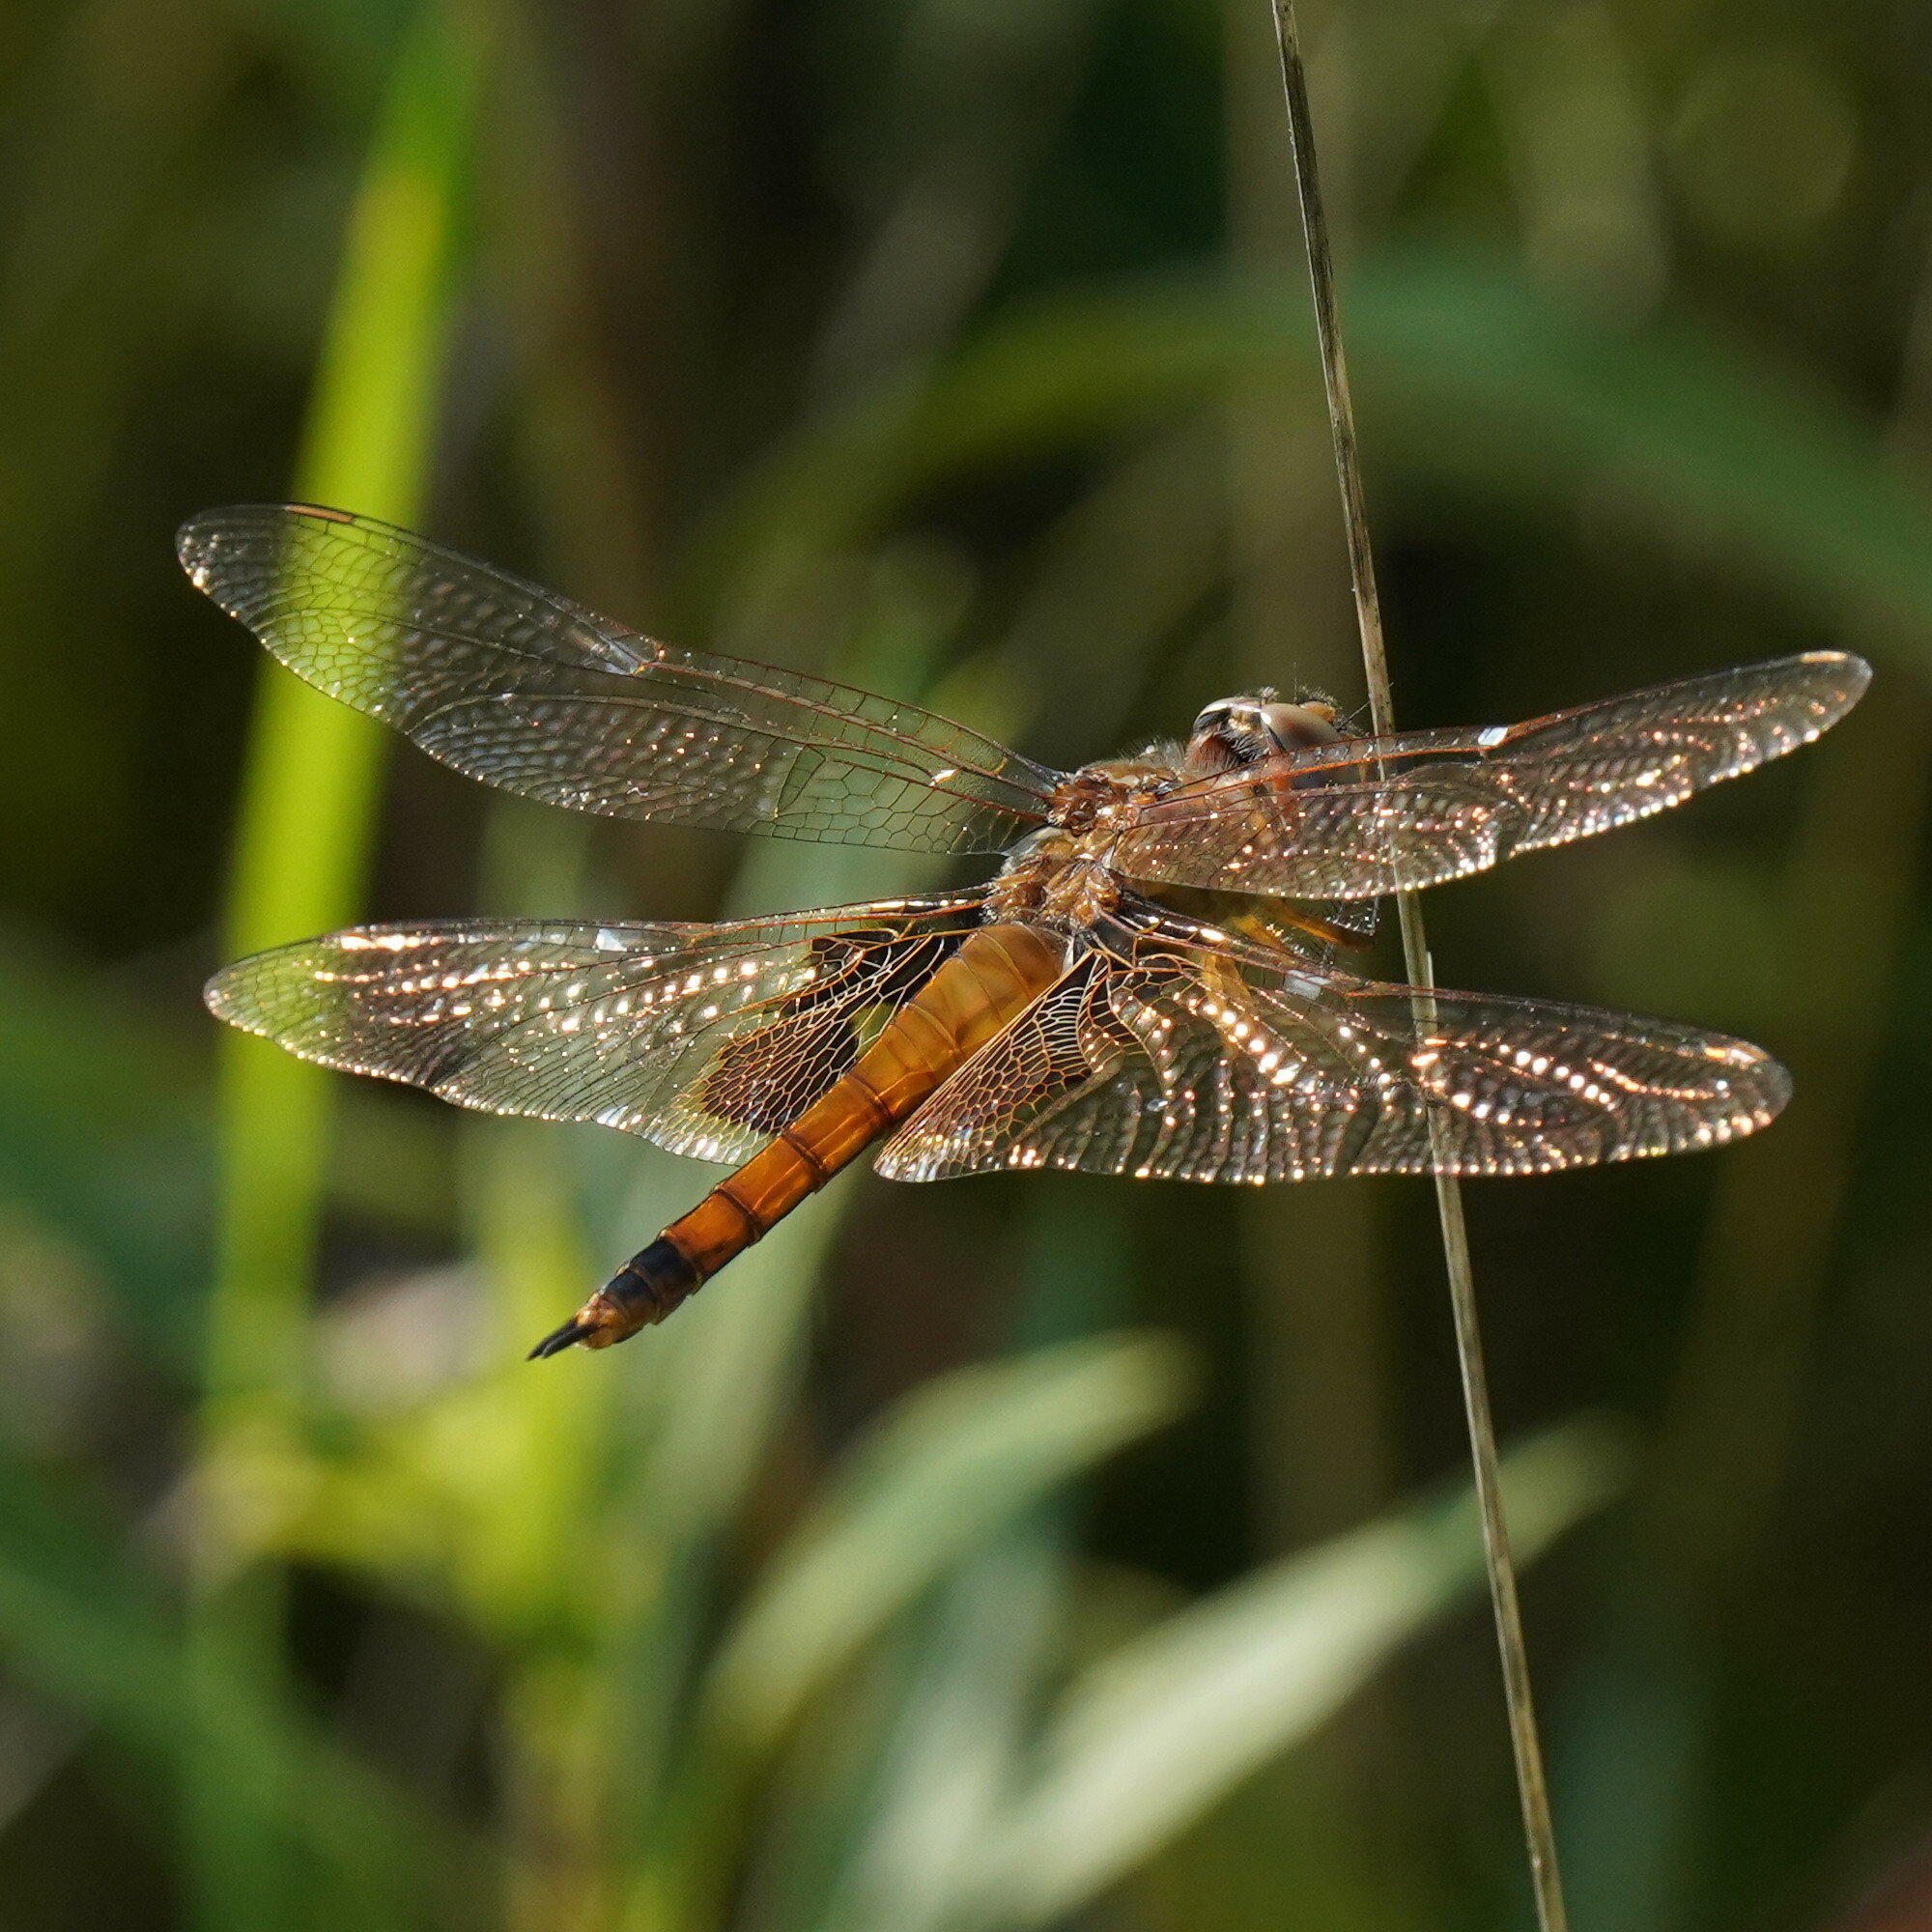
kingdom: Animalia
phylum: Arthropoda
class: Insecta
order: Odonata
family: Libellulidae
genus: Tramea
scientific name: Tramea onusta
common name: Red saddlebags
